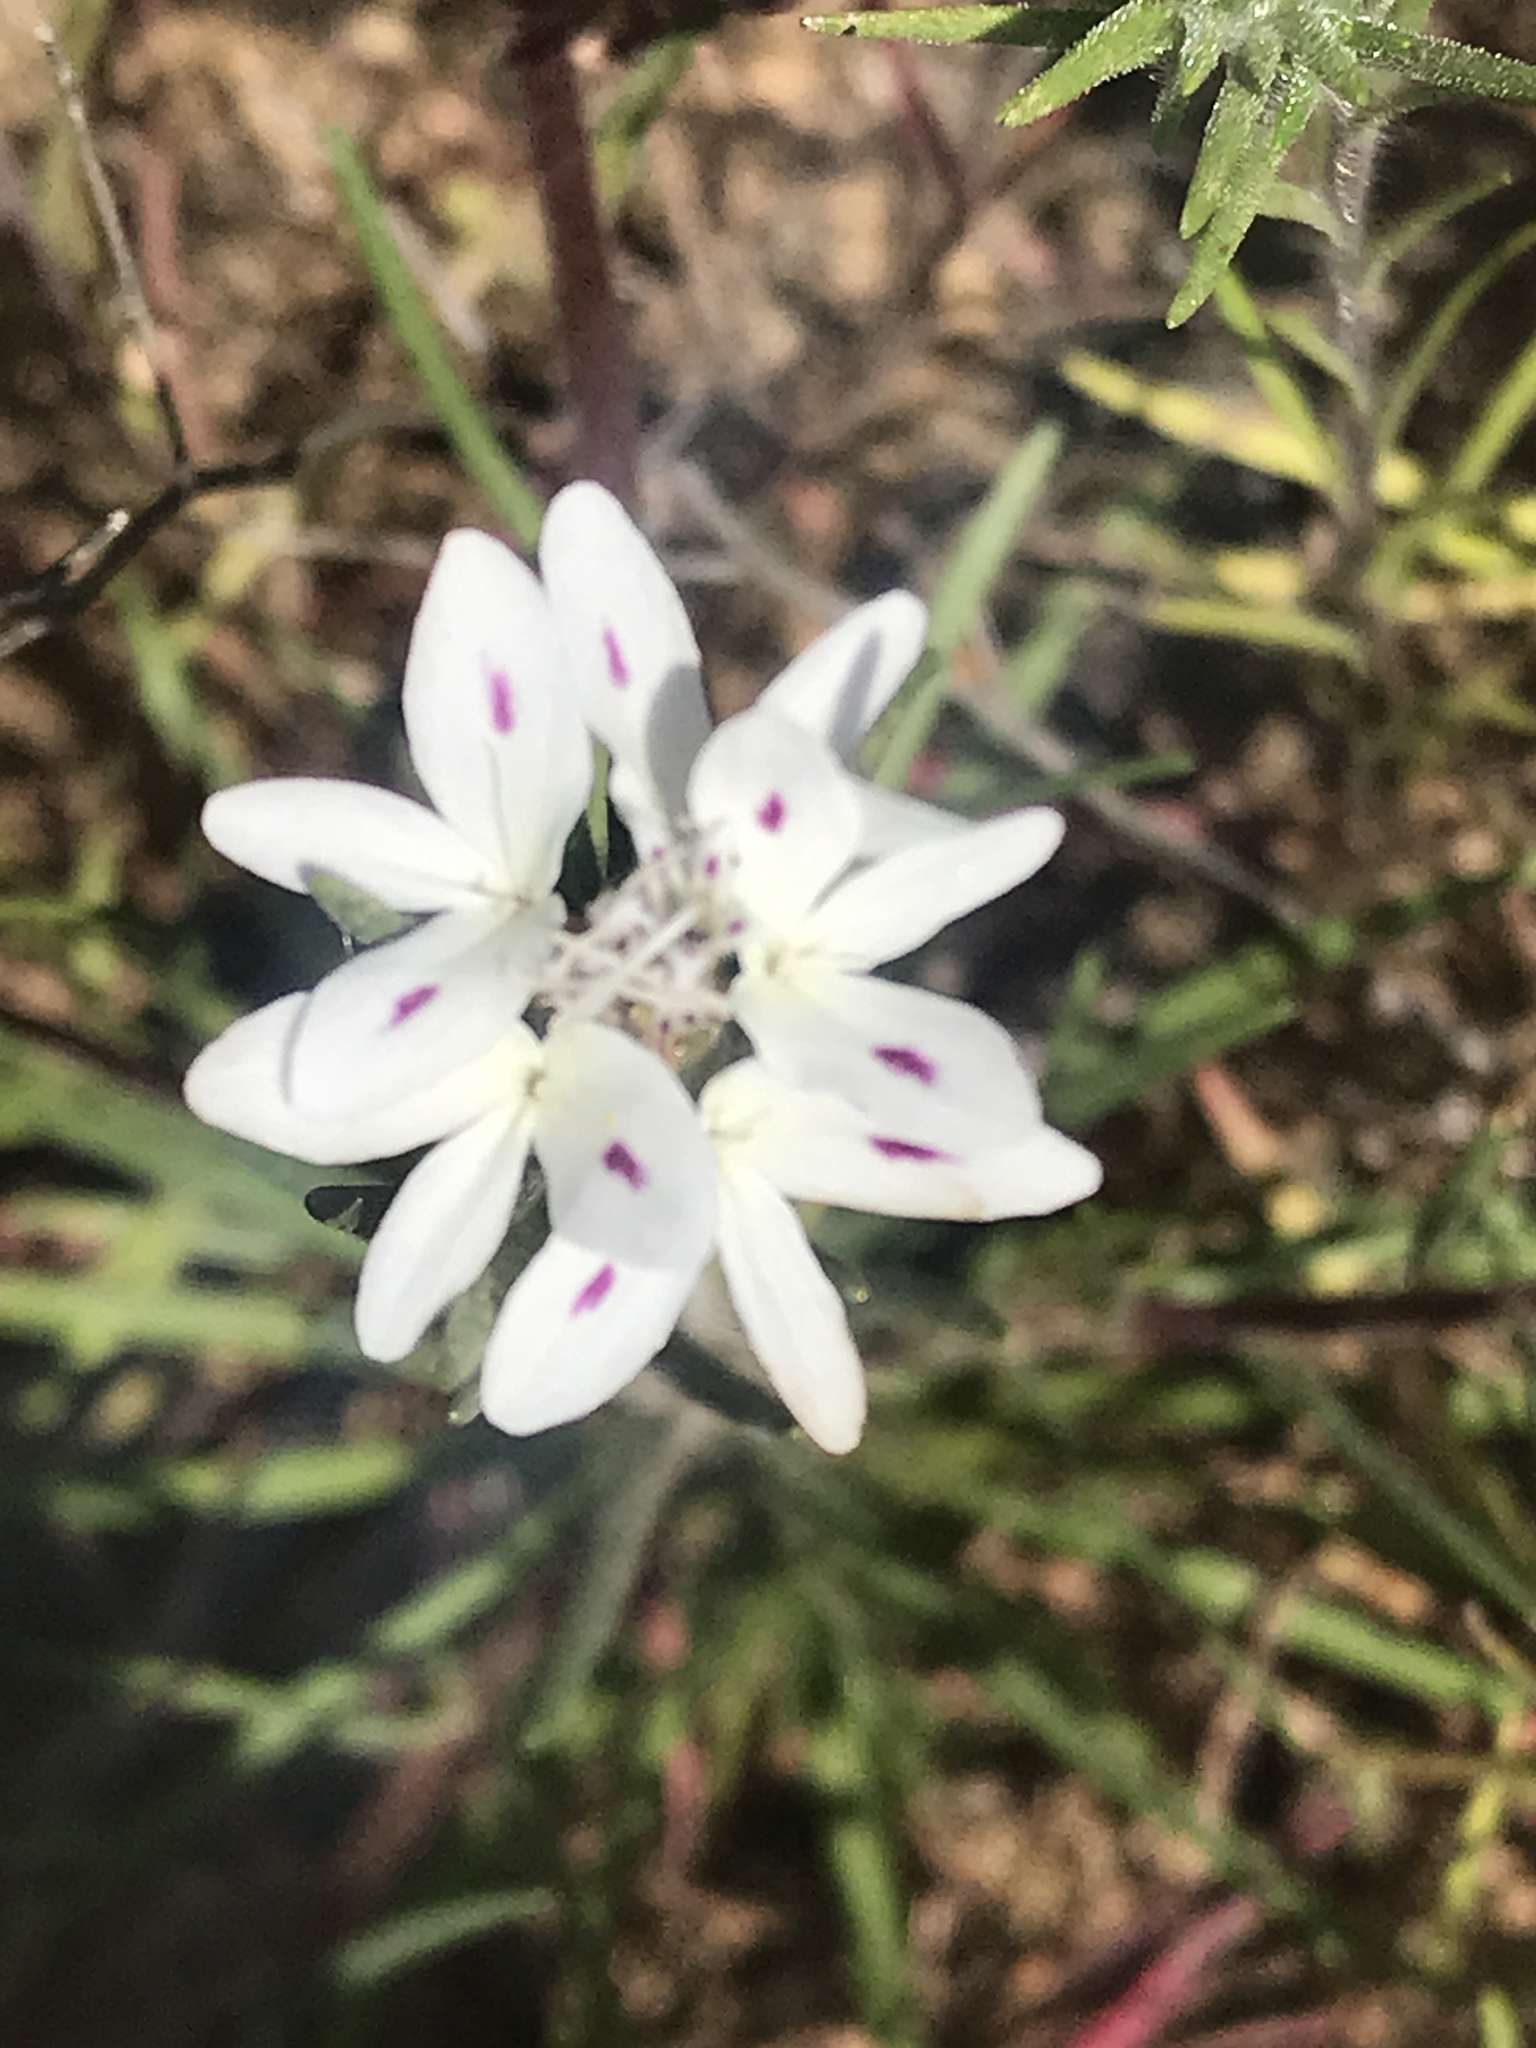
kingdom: Plantae
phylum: Tracheophyta
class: Magnoliopsida
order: Asterales
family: Asteraceae
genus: Osmadenia
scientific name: Osmadenia tenella
